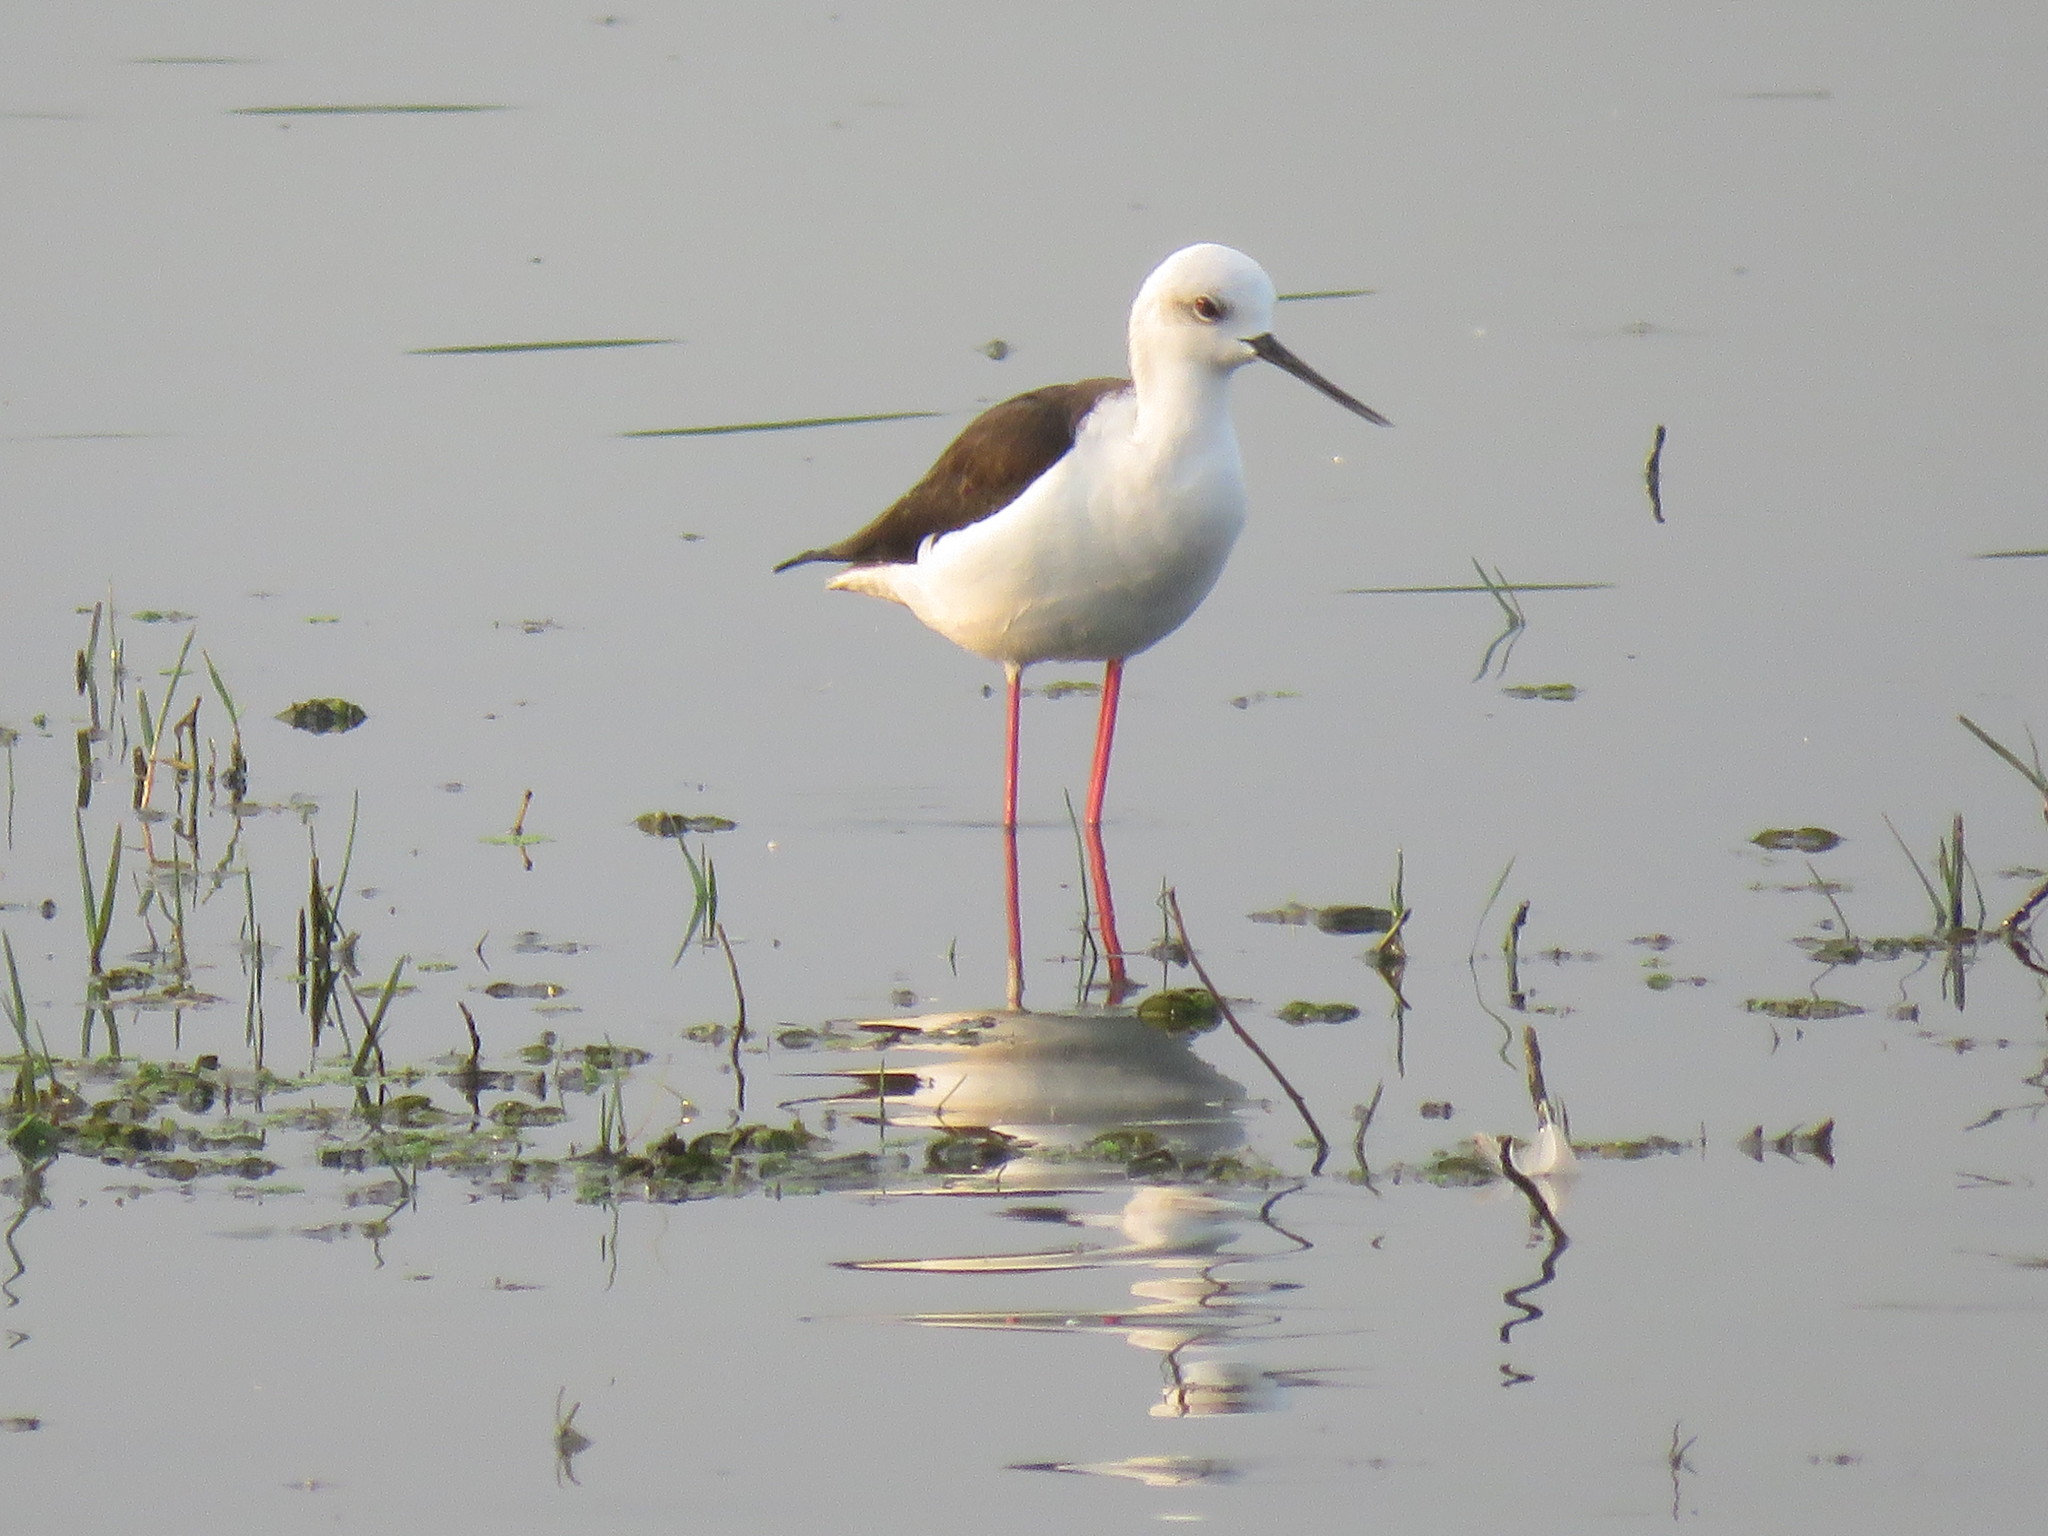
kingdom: Animalia
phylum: Chordata
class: Aves
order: Charadriiformes
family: Recurvirostridae
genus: Himantopus
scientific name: Himantopus himantopus
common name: Black-winged stilt
